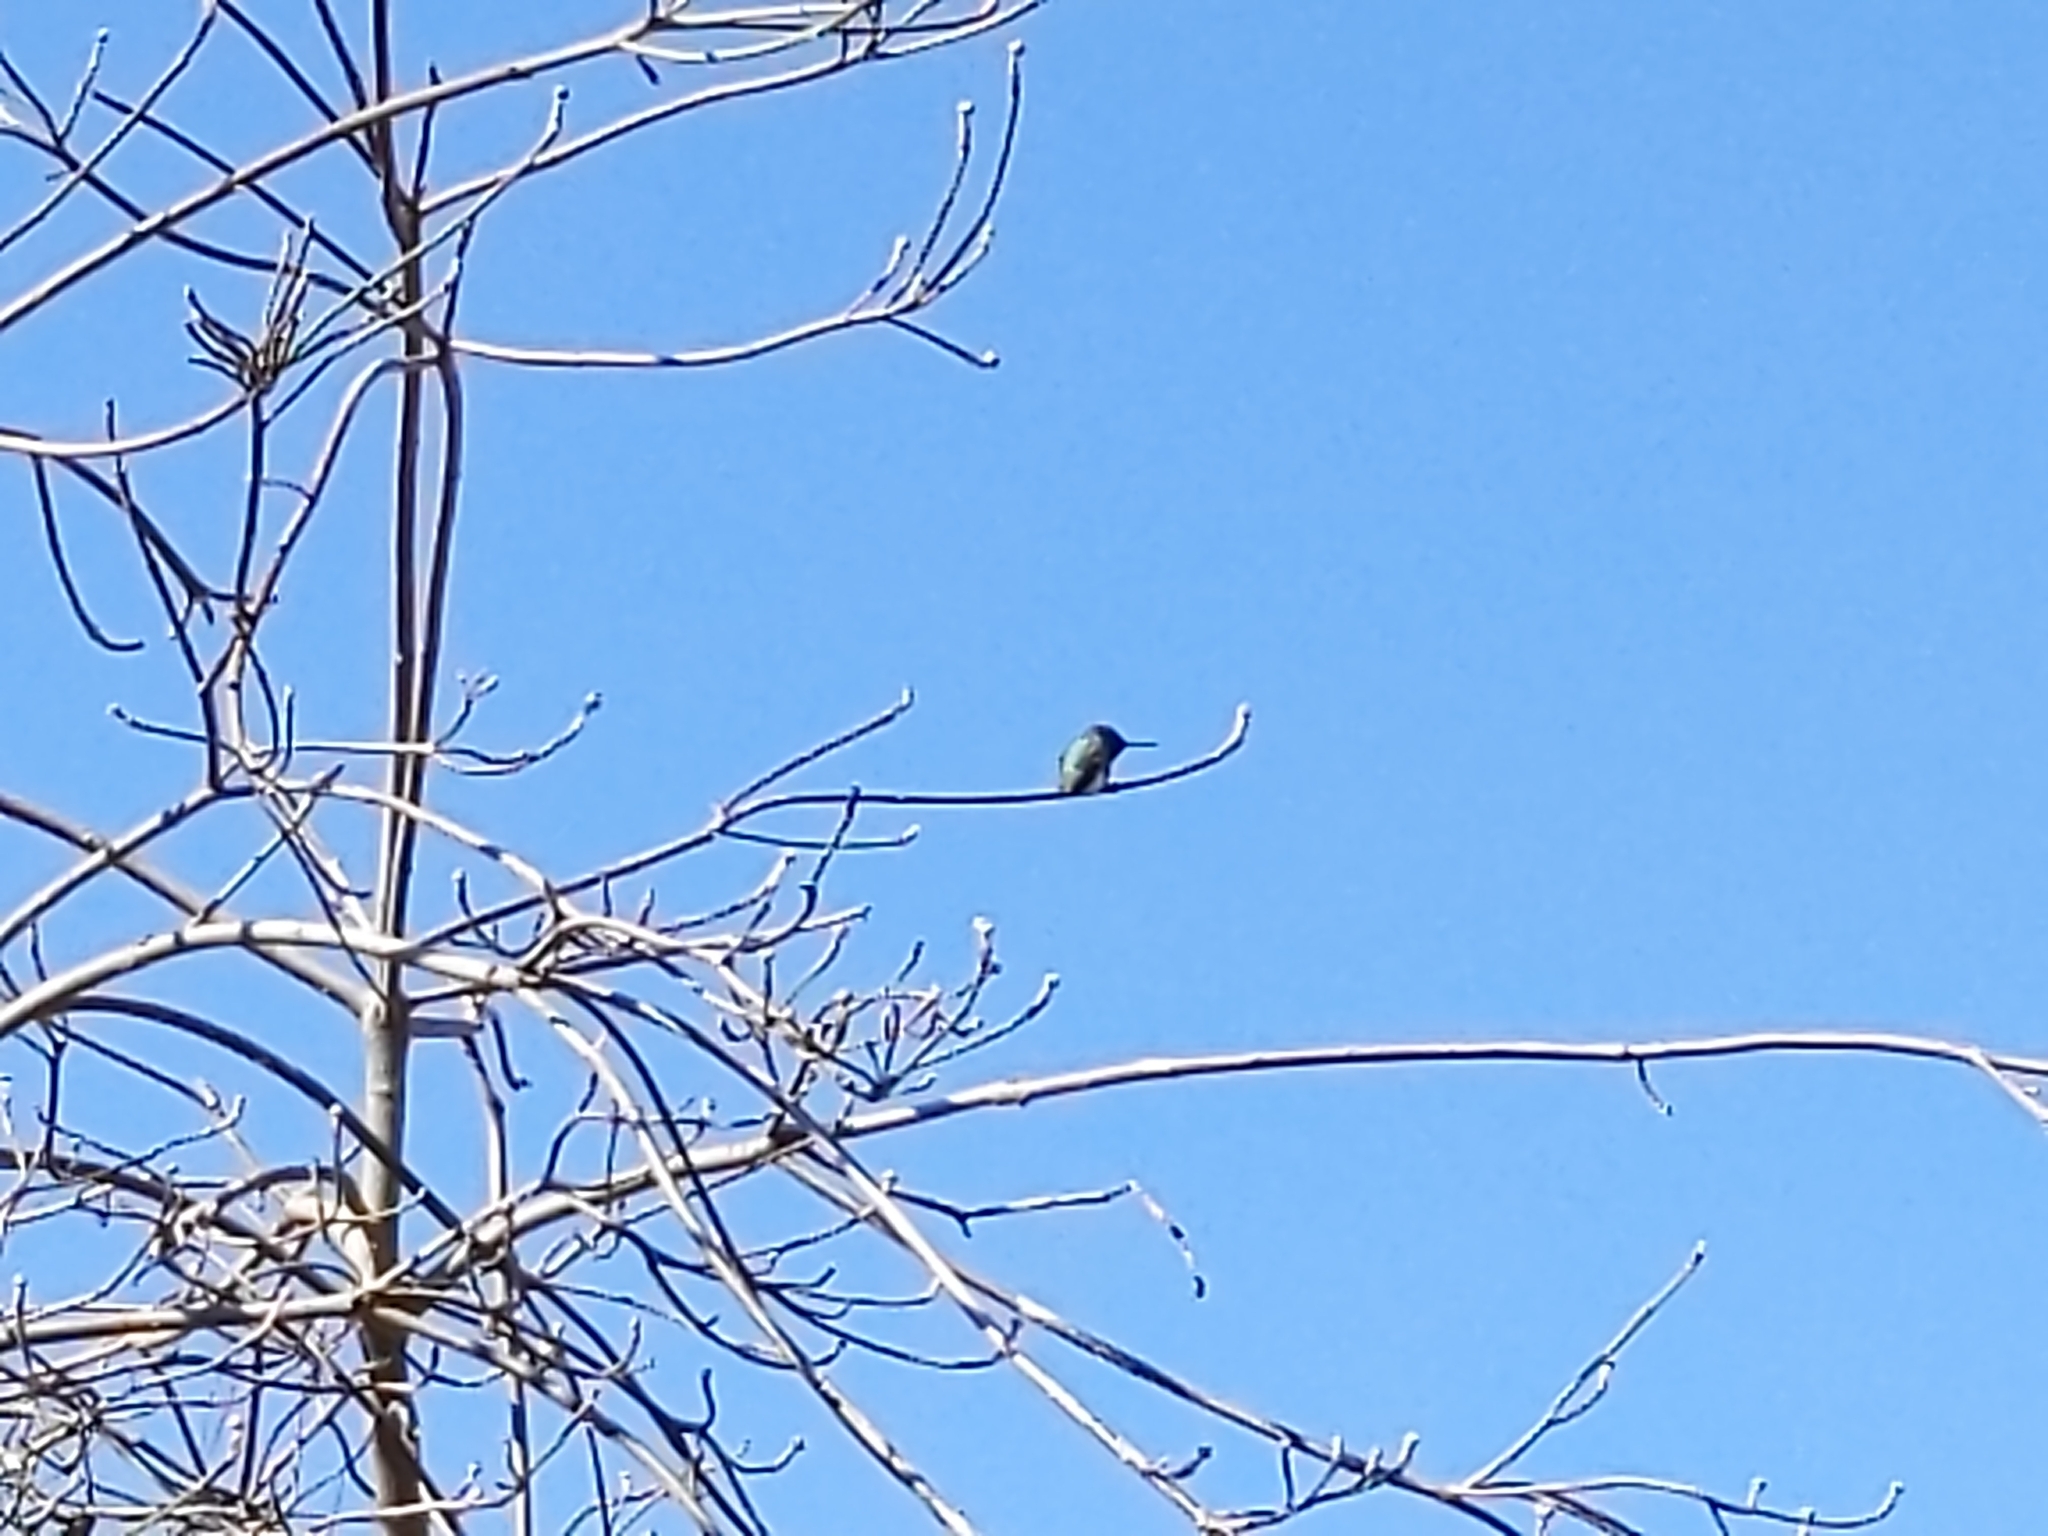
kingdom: Animalia
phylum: Chordata
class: Aves
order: Apodiformes
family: Trochilidae
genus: Calypte
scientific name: Calypte anna
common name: Anna's hummingbird
